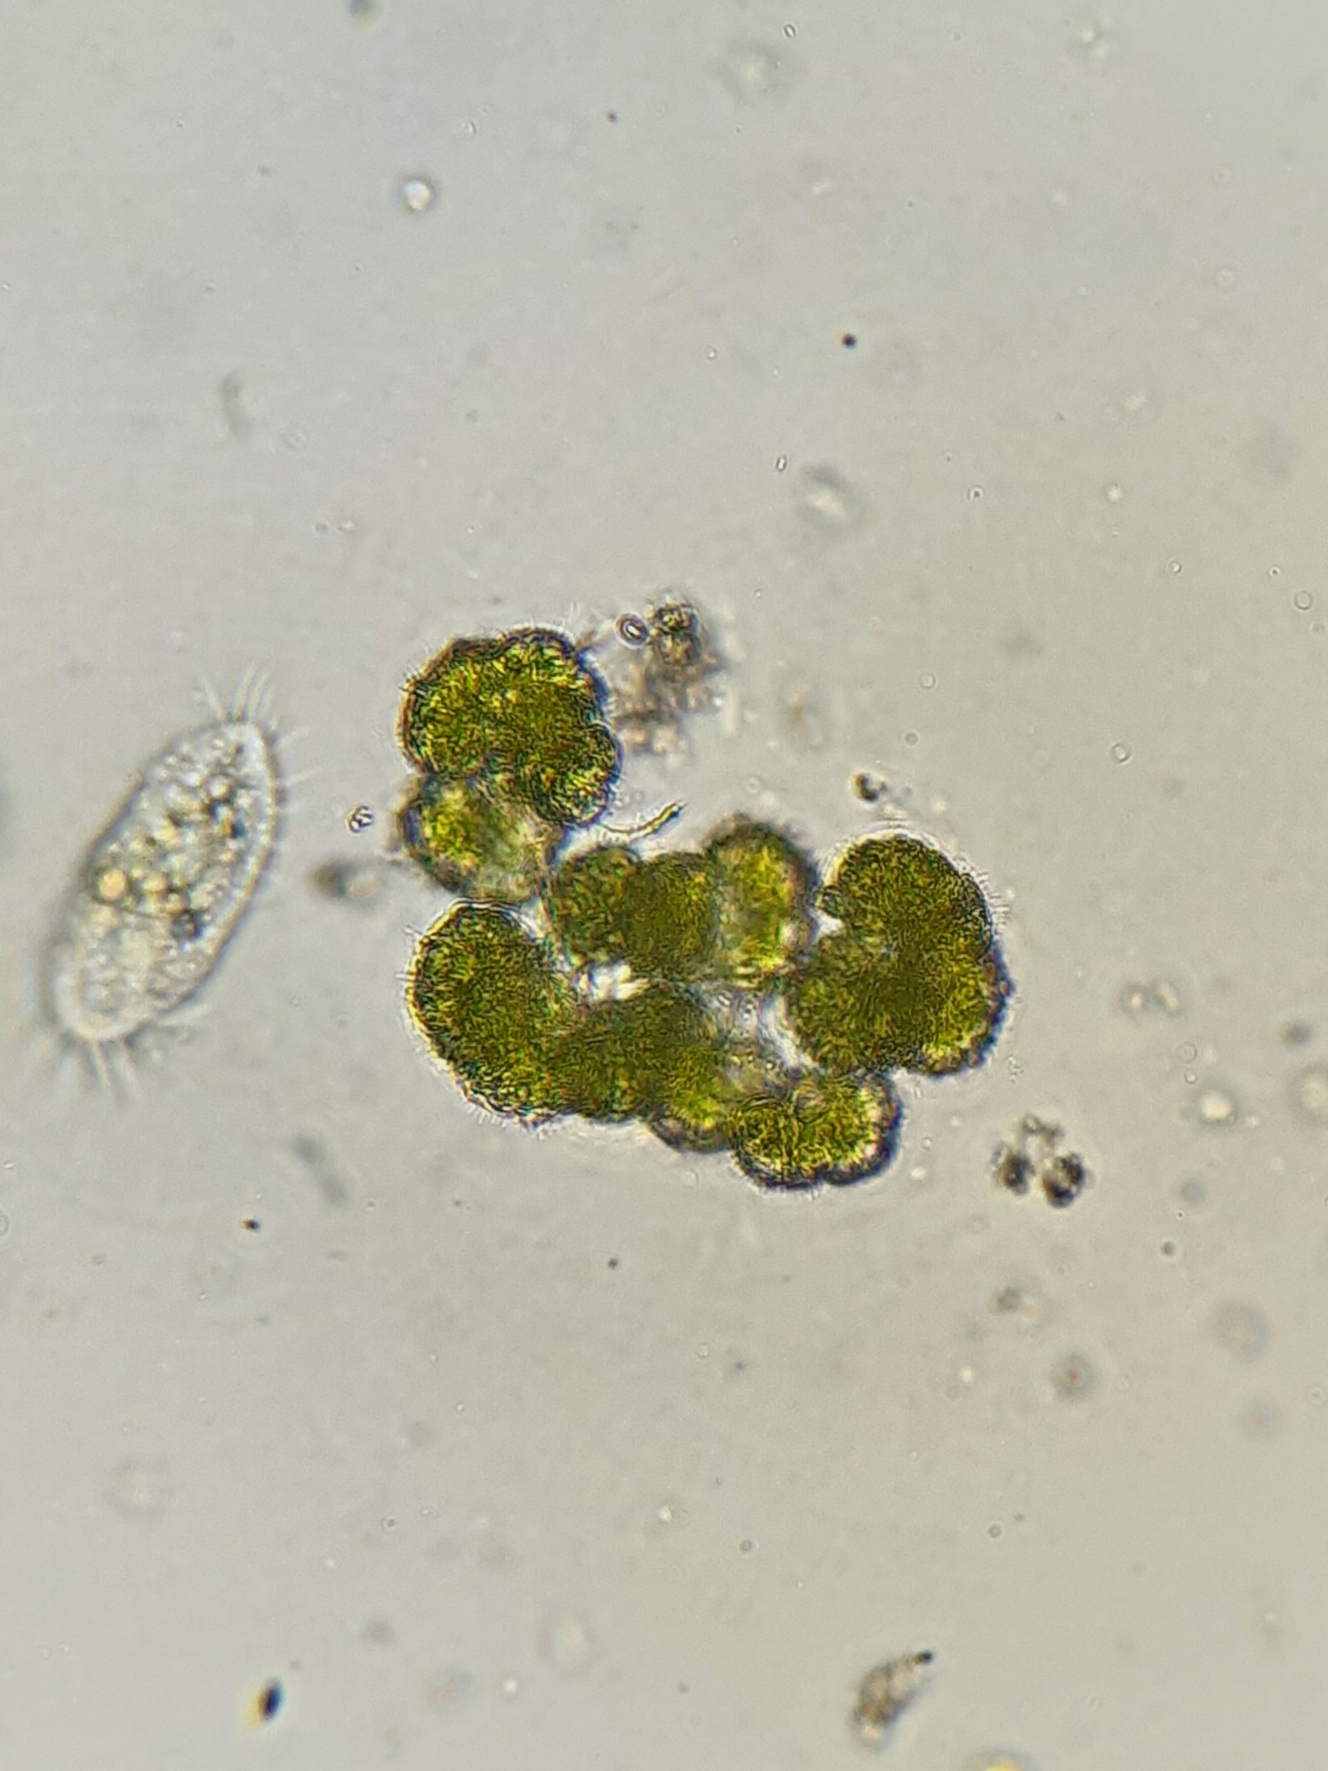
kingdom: Plantae
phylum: Chlorophyta
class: Trebouxiophyceae
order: Trebouxiales
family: Botryococcaceae
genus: Botryococcus
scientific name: Botryococcus braunii
